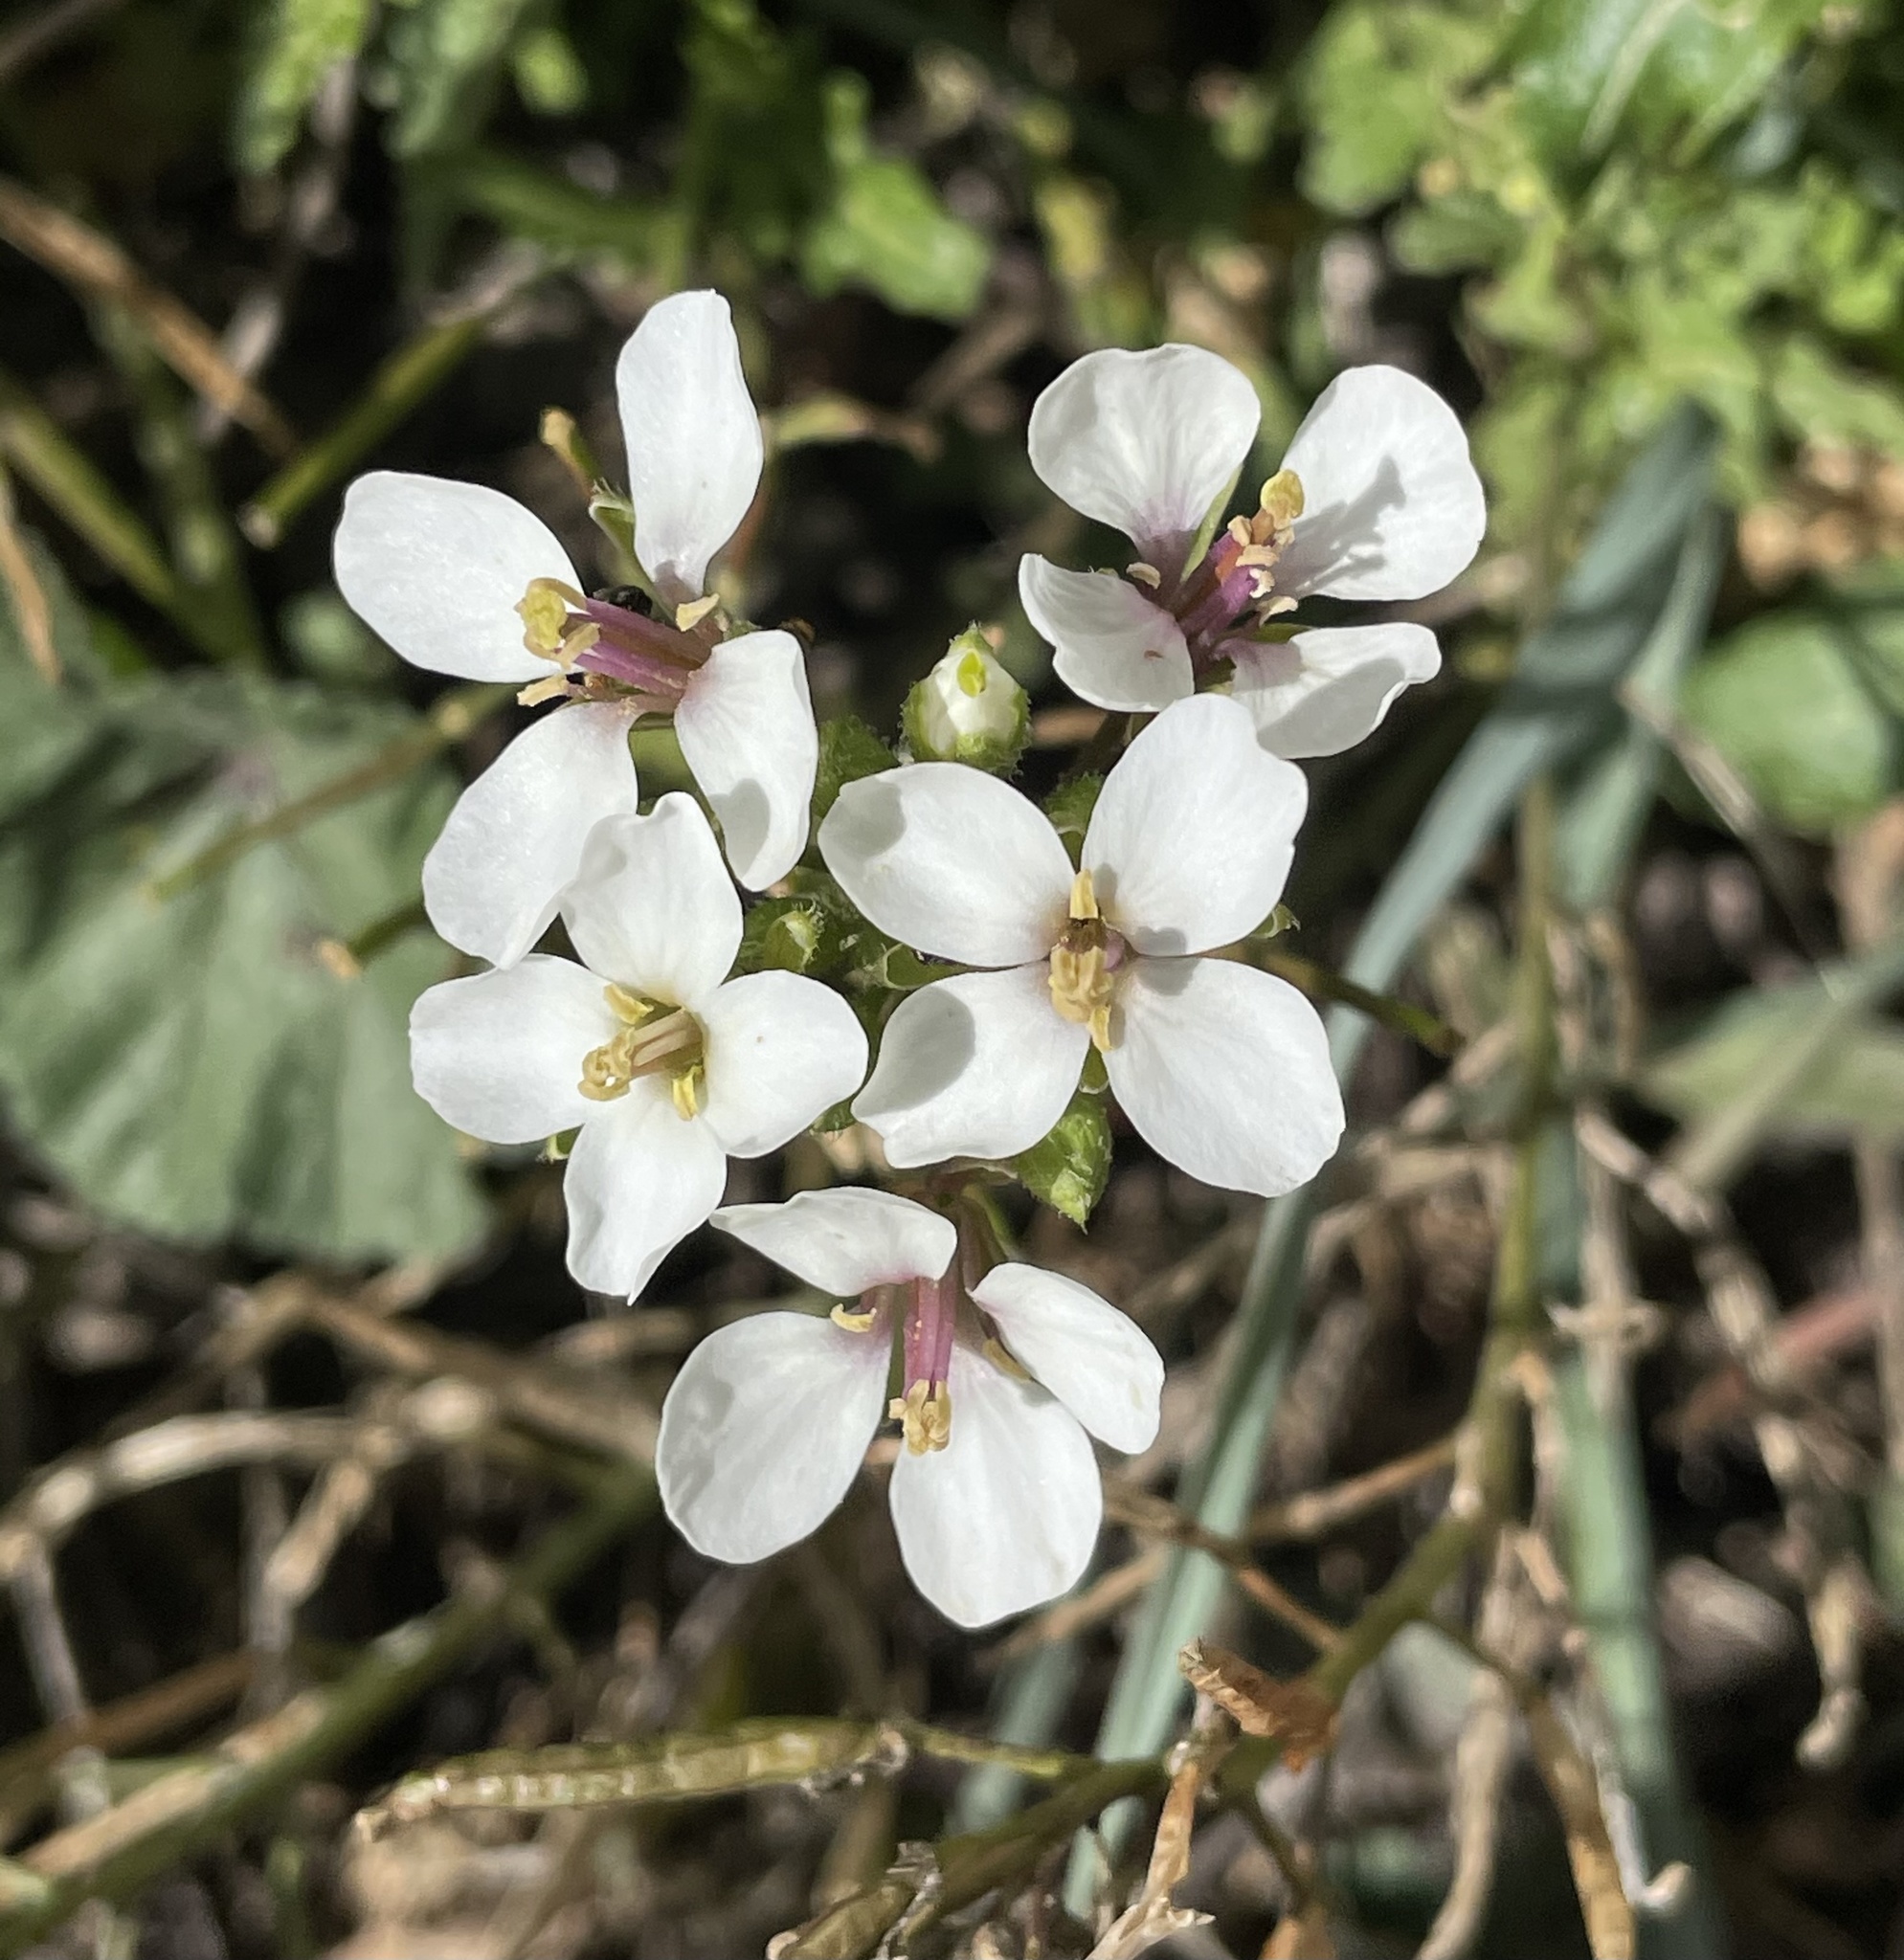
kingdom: Plantae
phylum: Tracheophyta
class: Magnoliopsida
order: Brassicales
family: Brassicaceae
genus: Diplotaxis
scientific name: Diplotaxis erucoides
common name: White rocket
